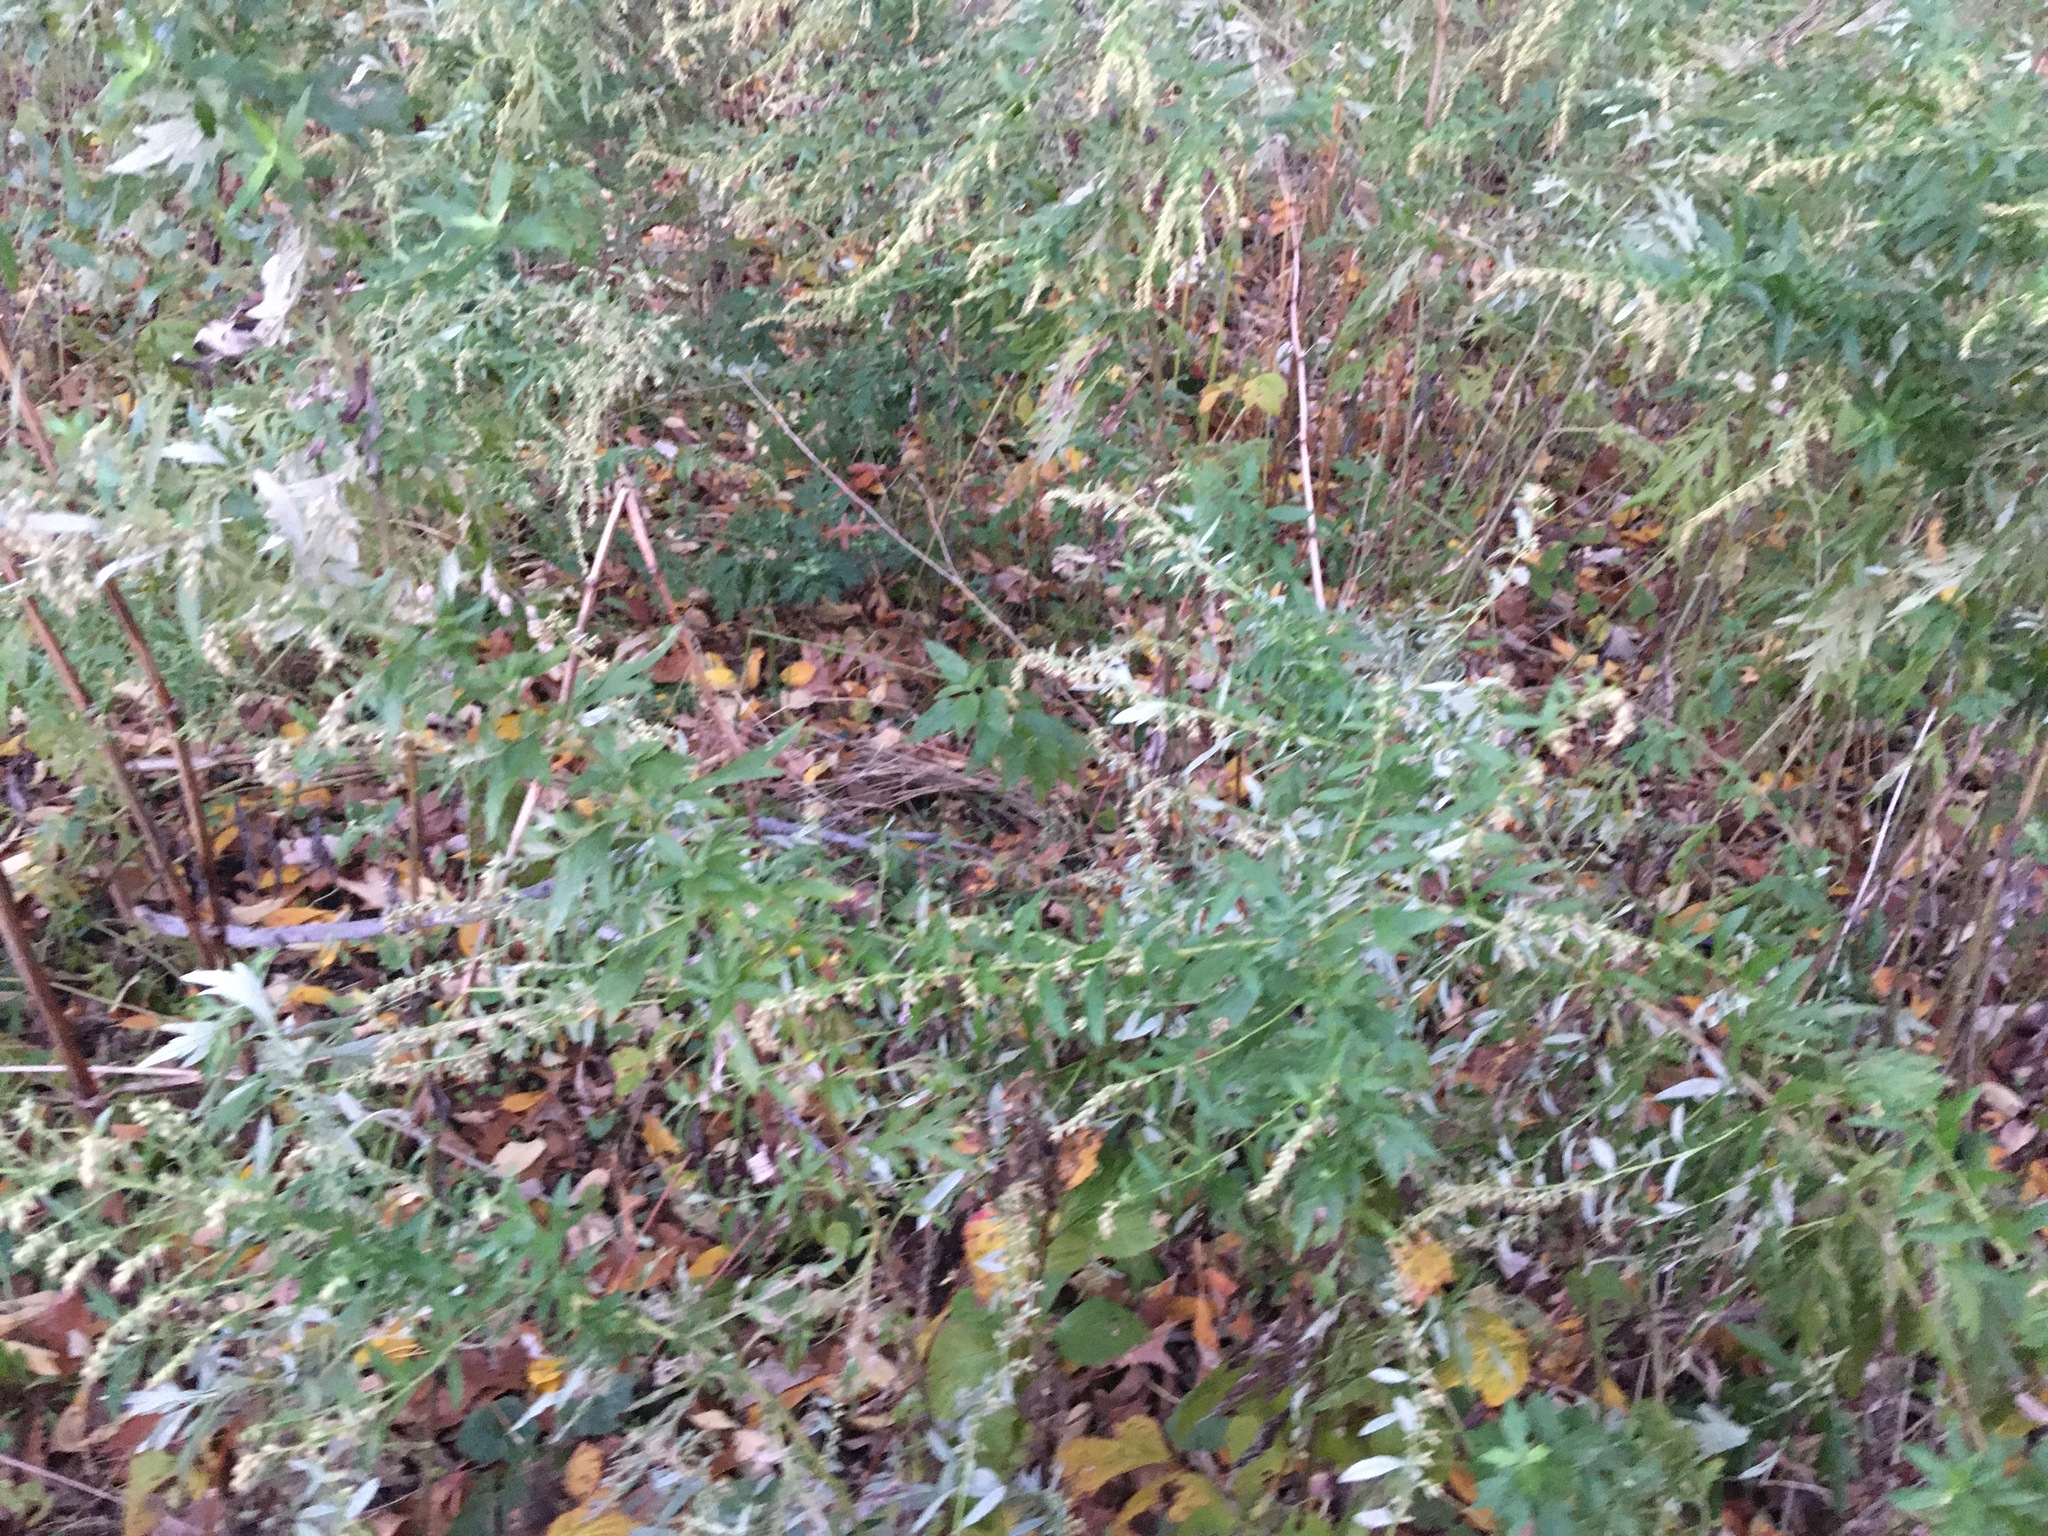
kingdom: Plantae
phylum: Tracheophyta
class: Magnoliopsida
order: Asterales
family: Asteraceae
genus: Artemisia
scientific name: Artemisia vulgaris
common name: Mugwort
